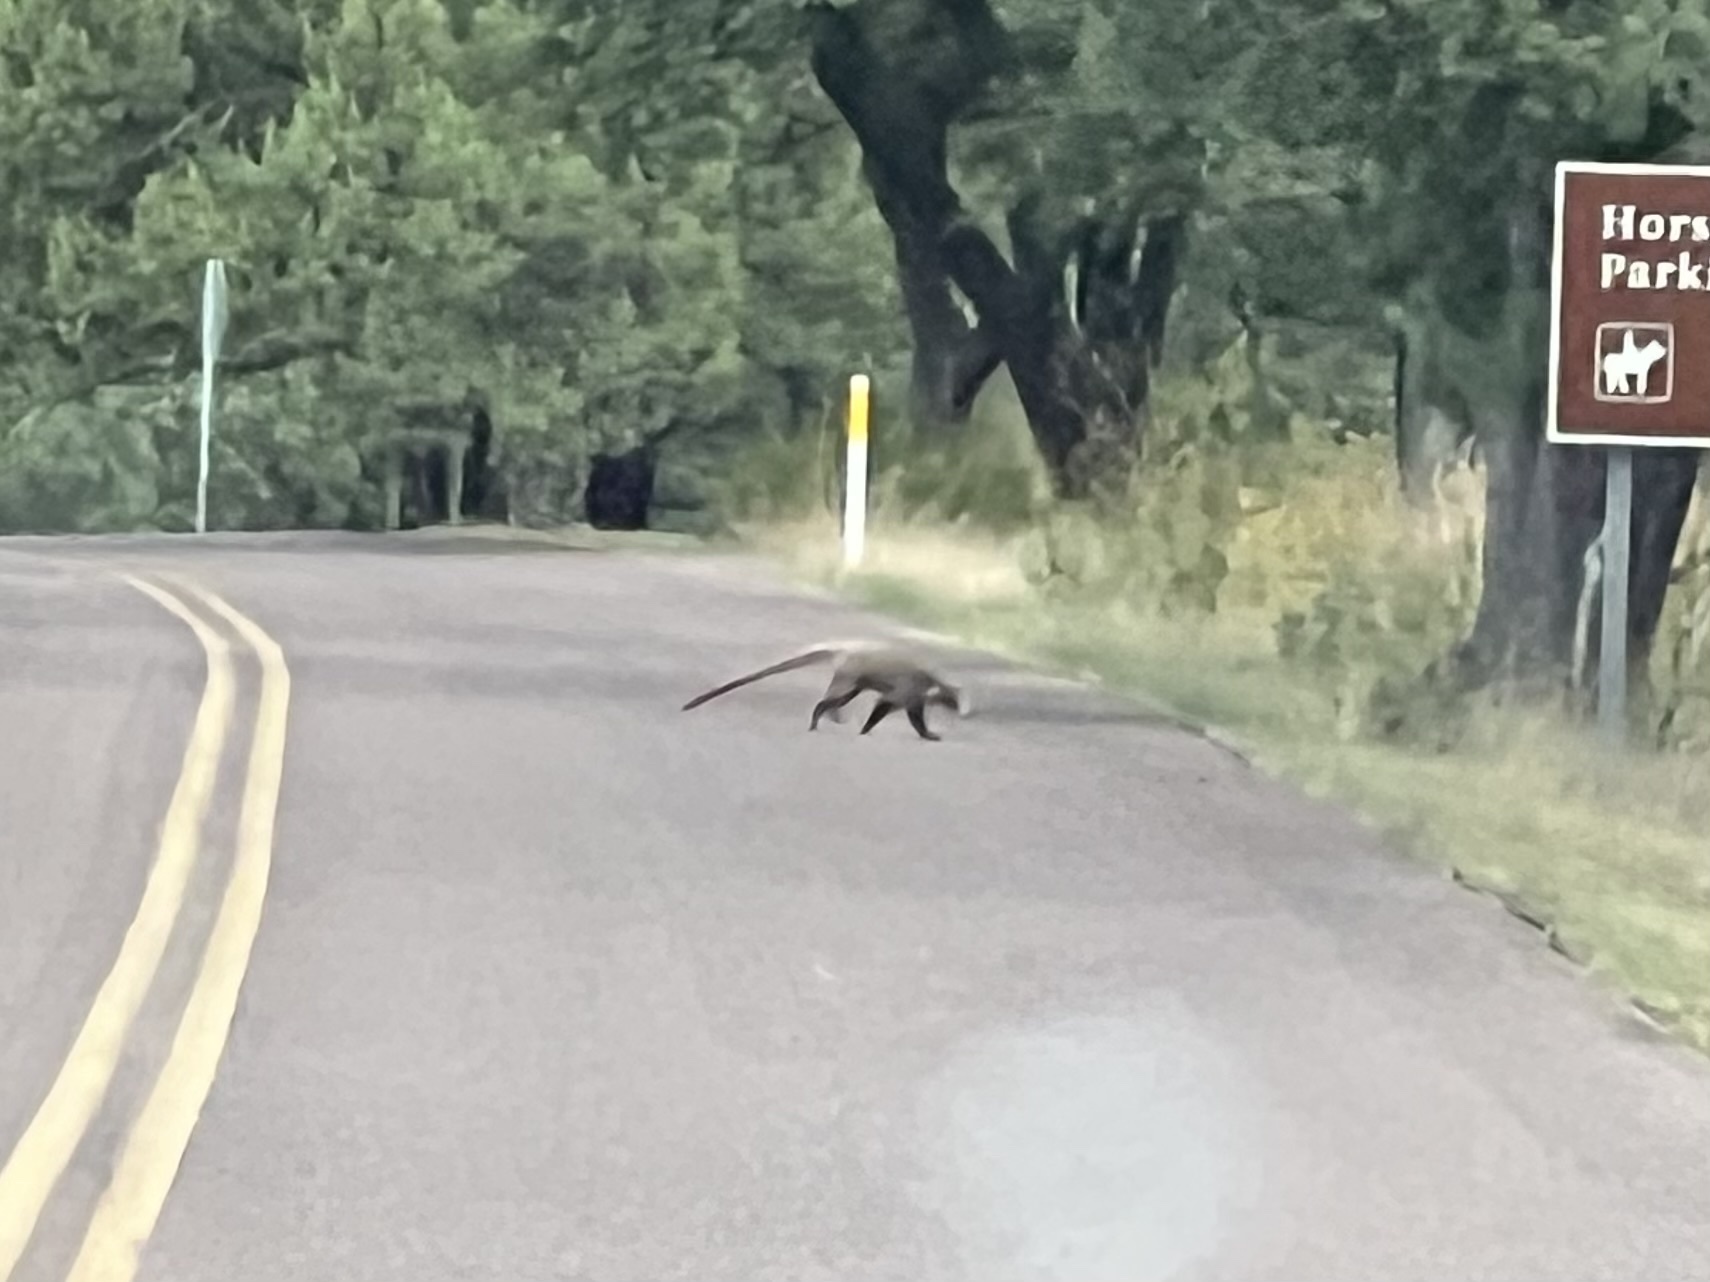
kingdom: Animalia
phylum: Chordata
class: Mammalia
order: Carnivora
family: Procyonidae
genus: Nasua
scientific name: Nasua narica
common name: White-nosed coati
